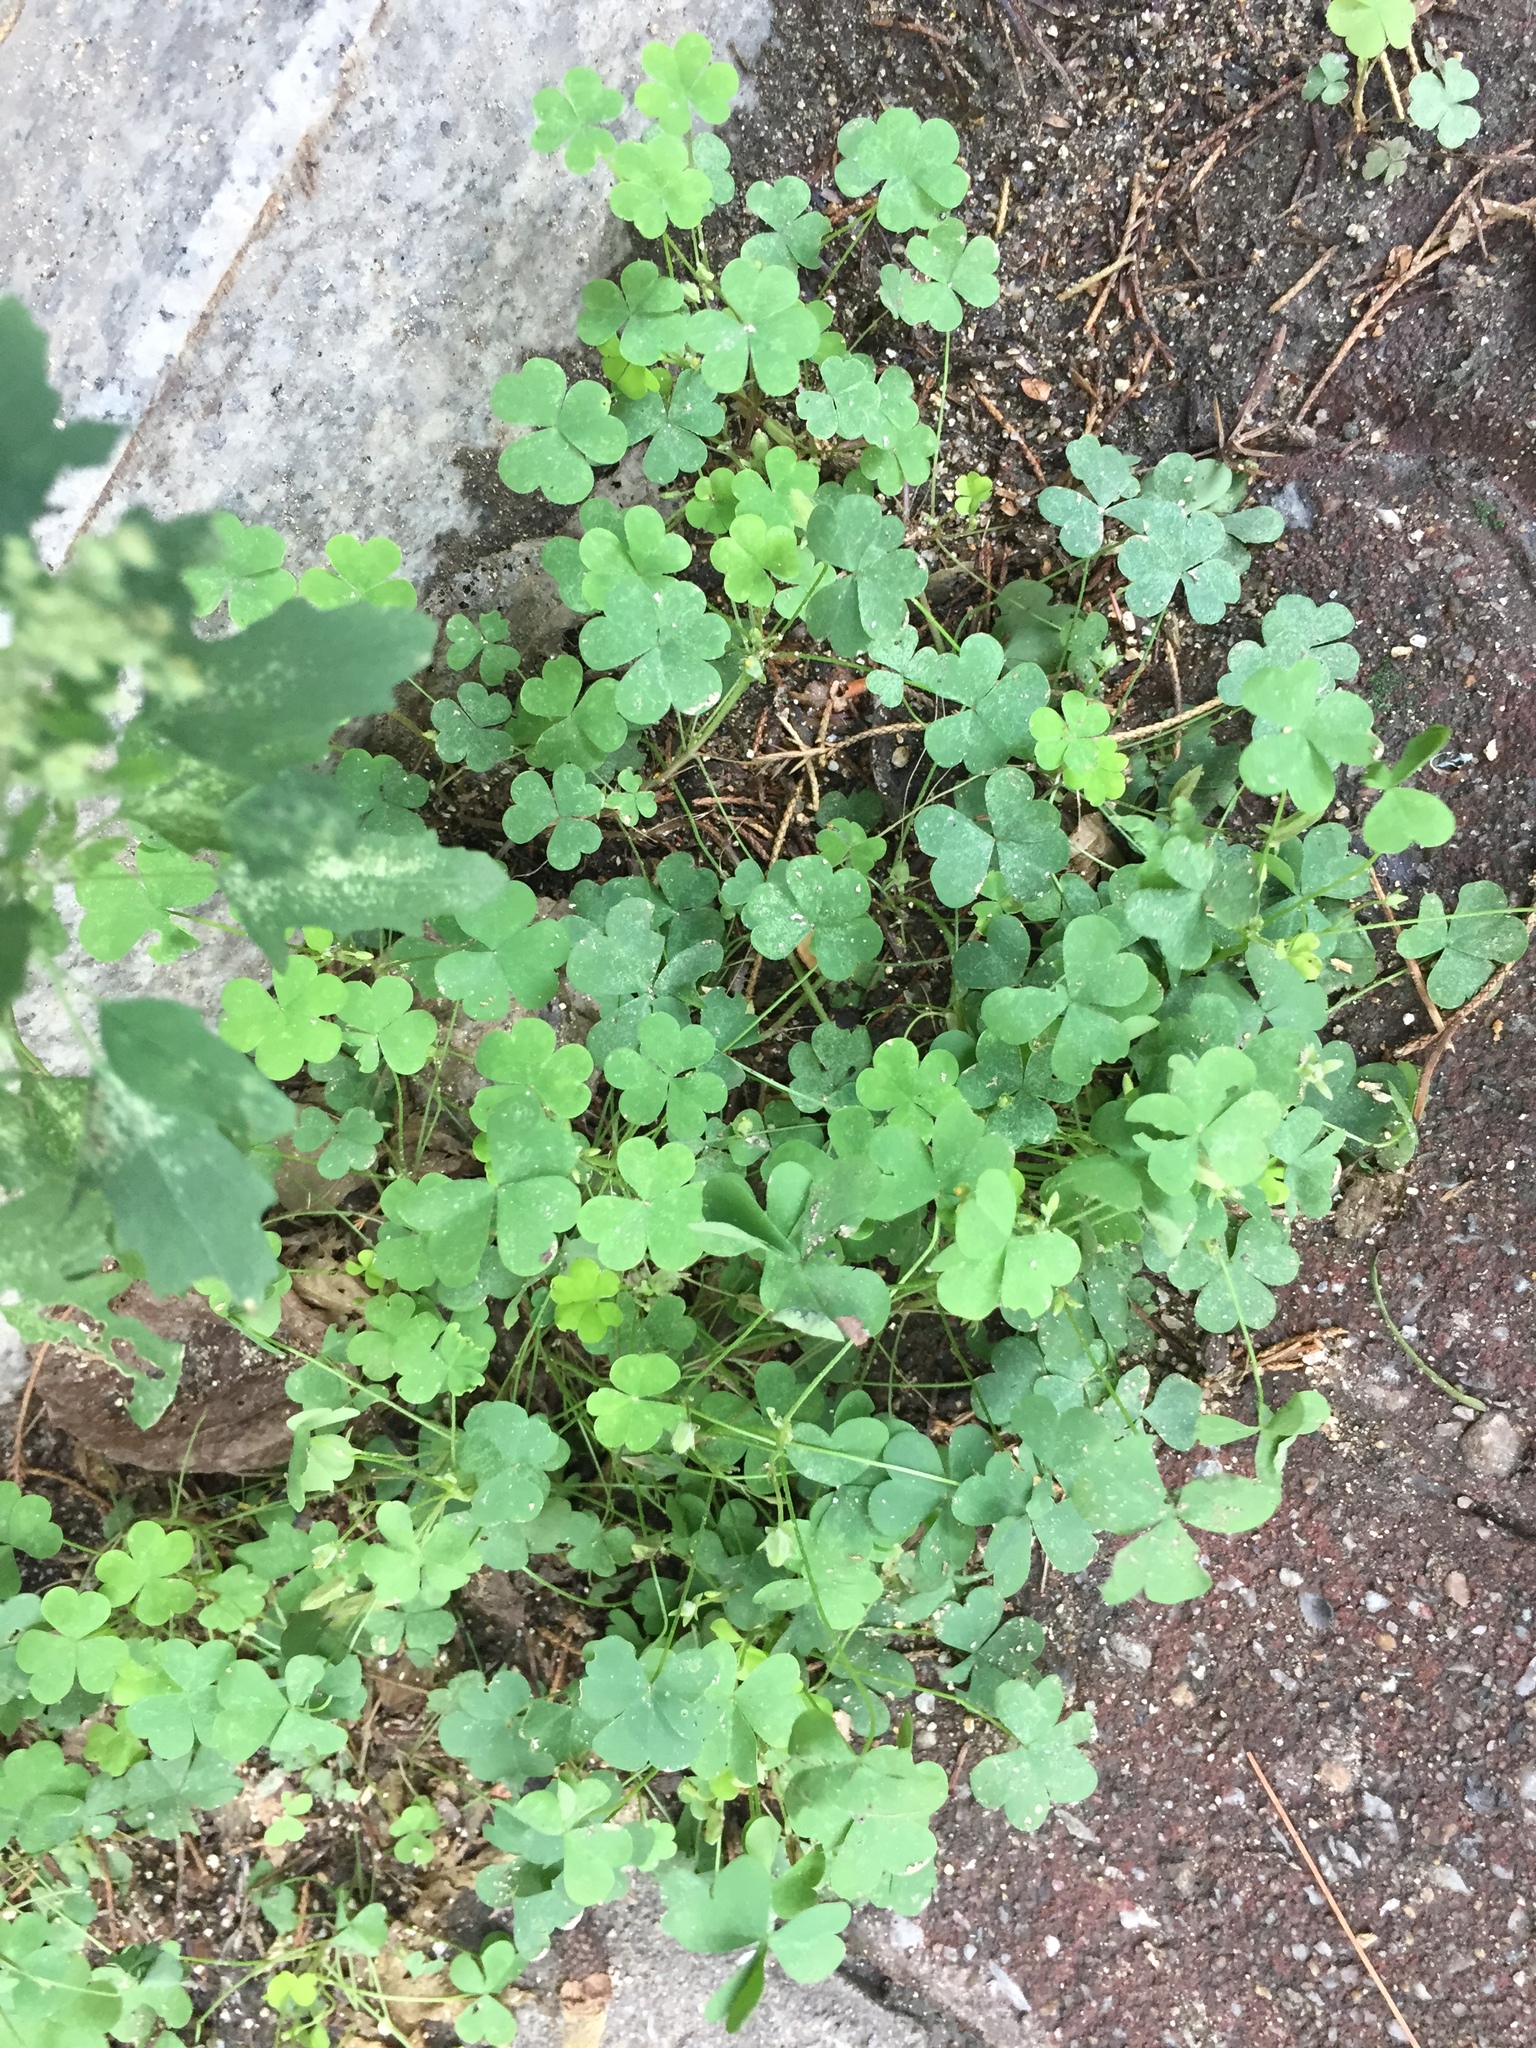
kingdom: Plantae
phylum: Tracheophyta
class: Magnoliopsida
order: Oxalidales
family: Oxalidaceae
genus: Oxalis
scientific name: Oxalis corniculata
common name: Procumbent yellow-sorrel
